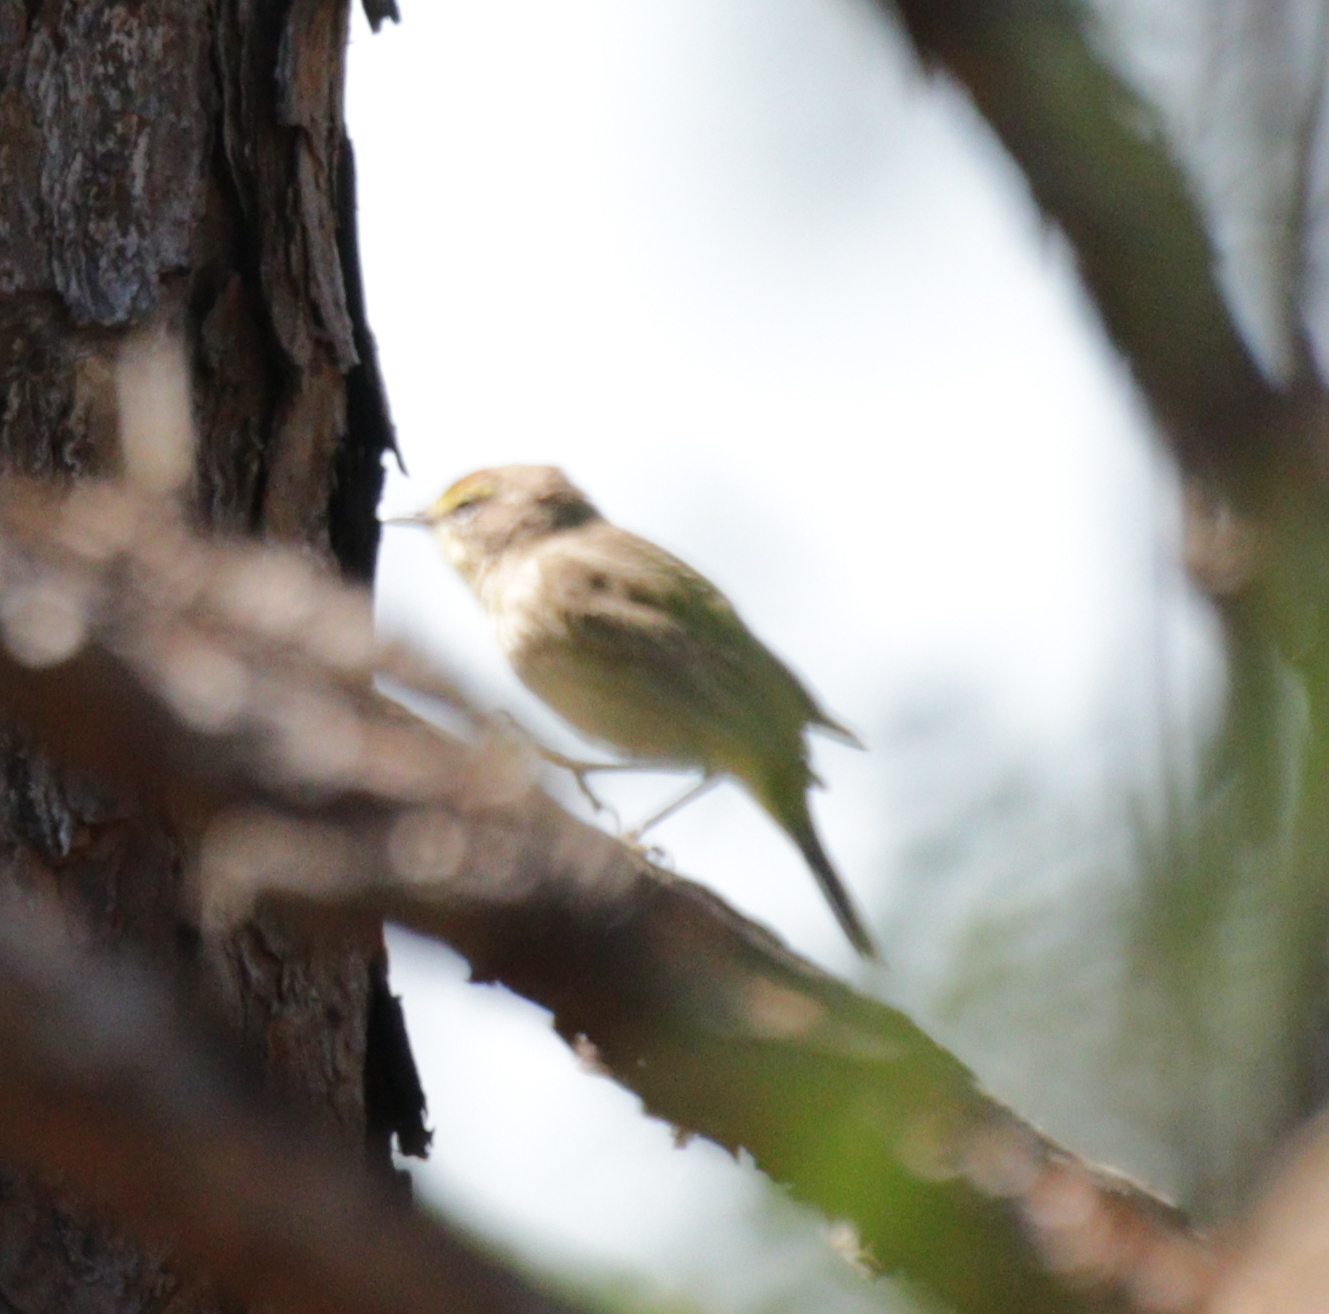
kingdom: Animalia
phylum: Chordata
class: Aves
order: Passeriformes
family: Parulidae
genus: Setophaga
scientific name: Setophaga palmarum
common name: Palm warbler
